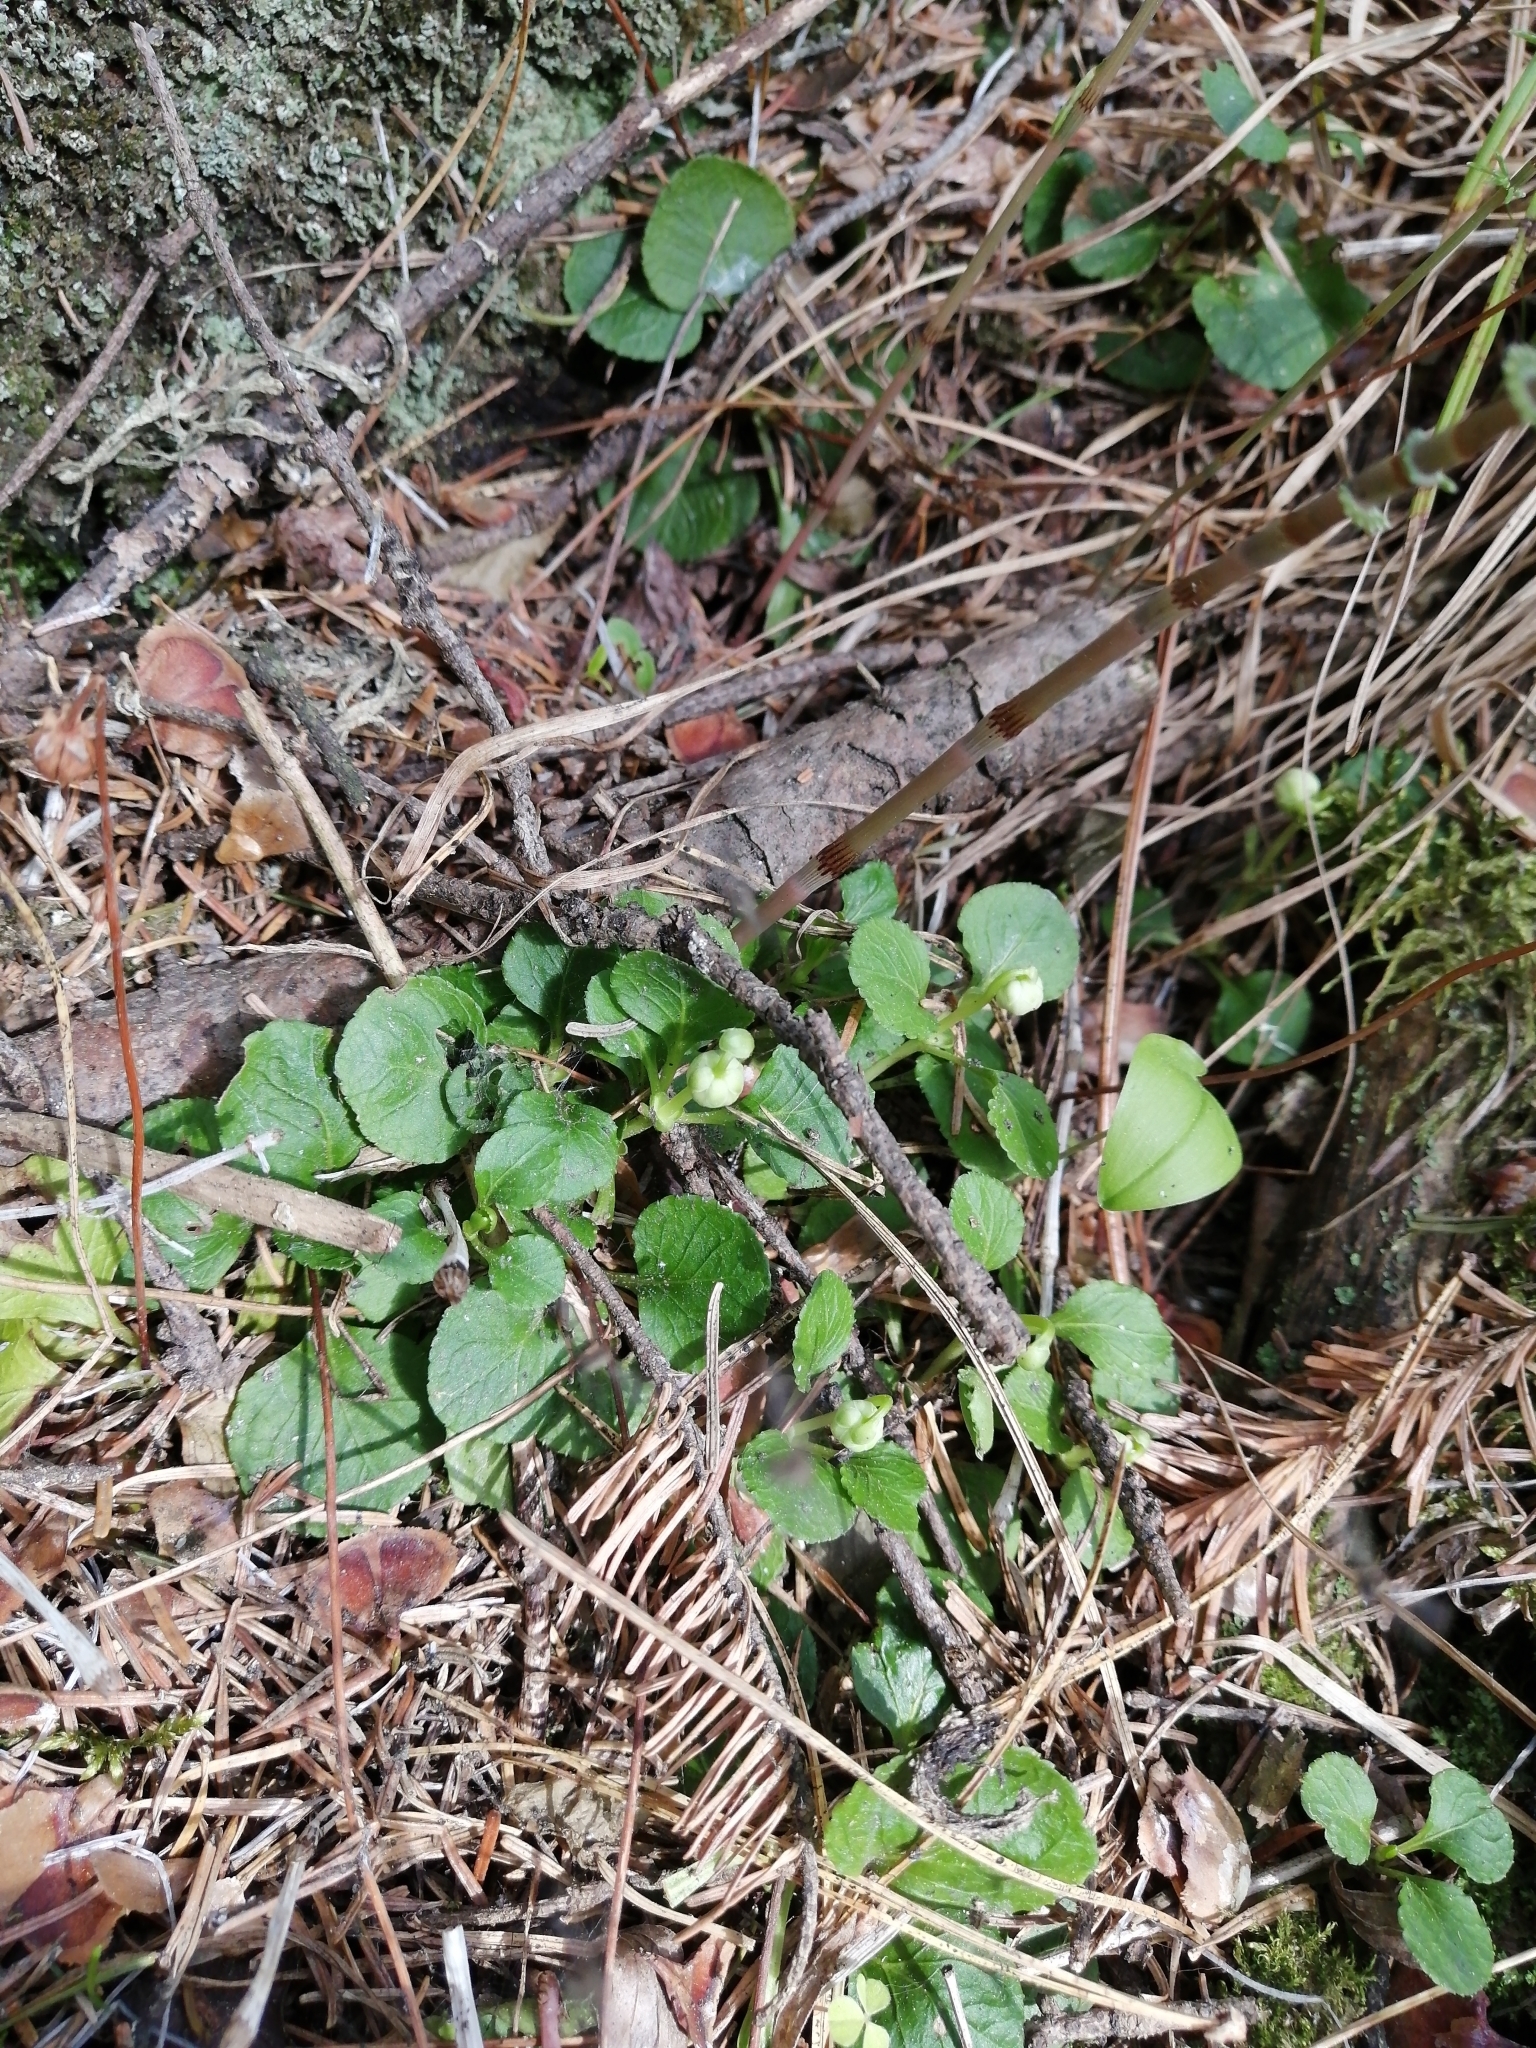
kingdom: Plantae
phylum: Tracheophyta
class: Magnoliopsida
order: Ericales
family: Ericaceae
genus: Moneses
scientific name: Moneses uniflora
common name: One-flowered wintergreen
